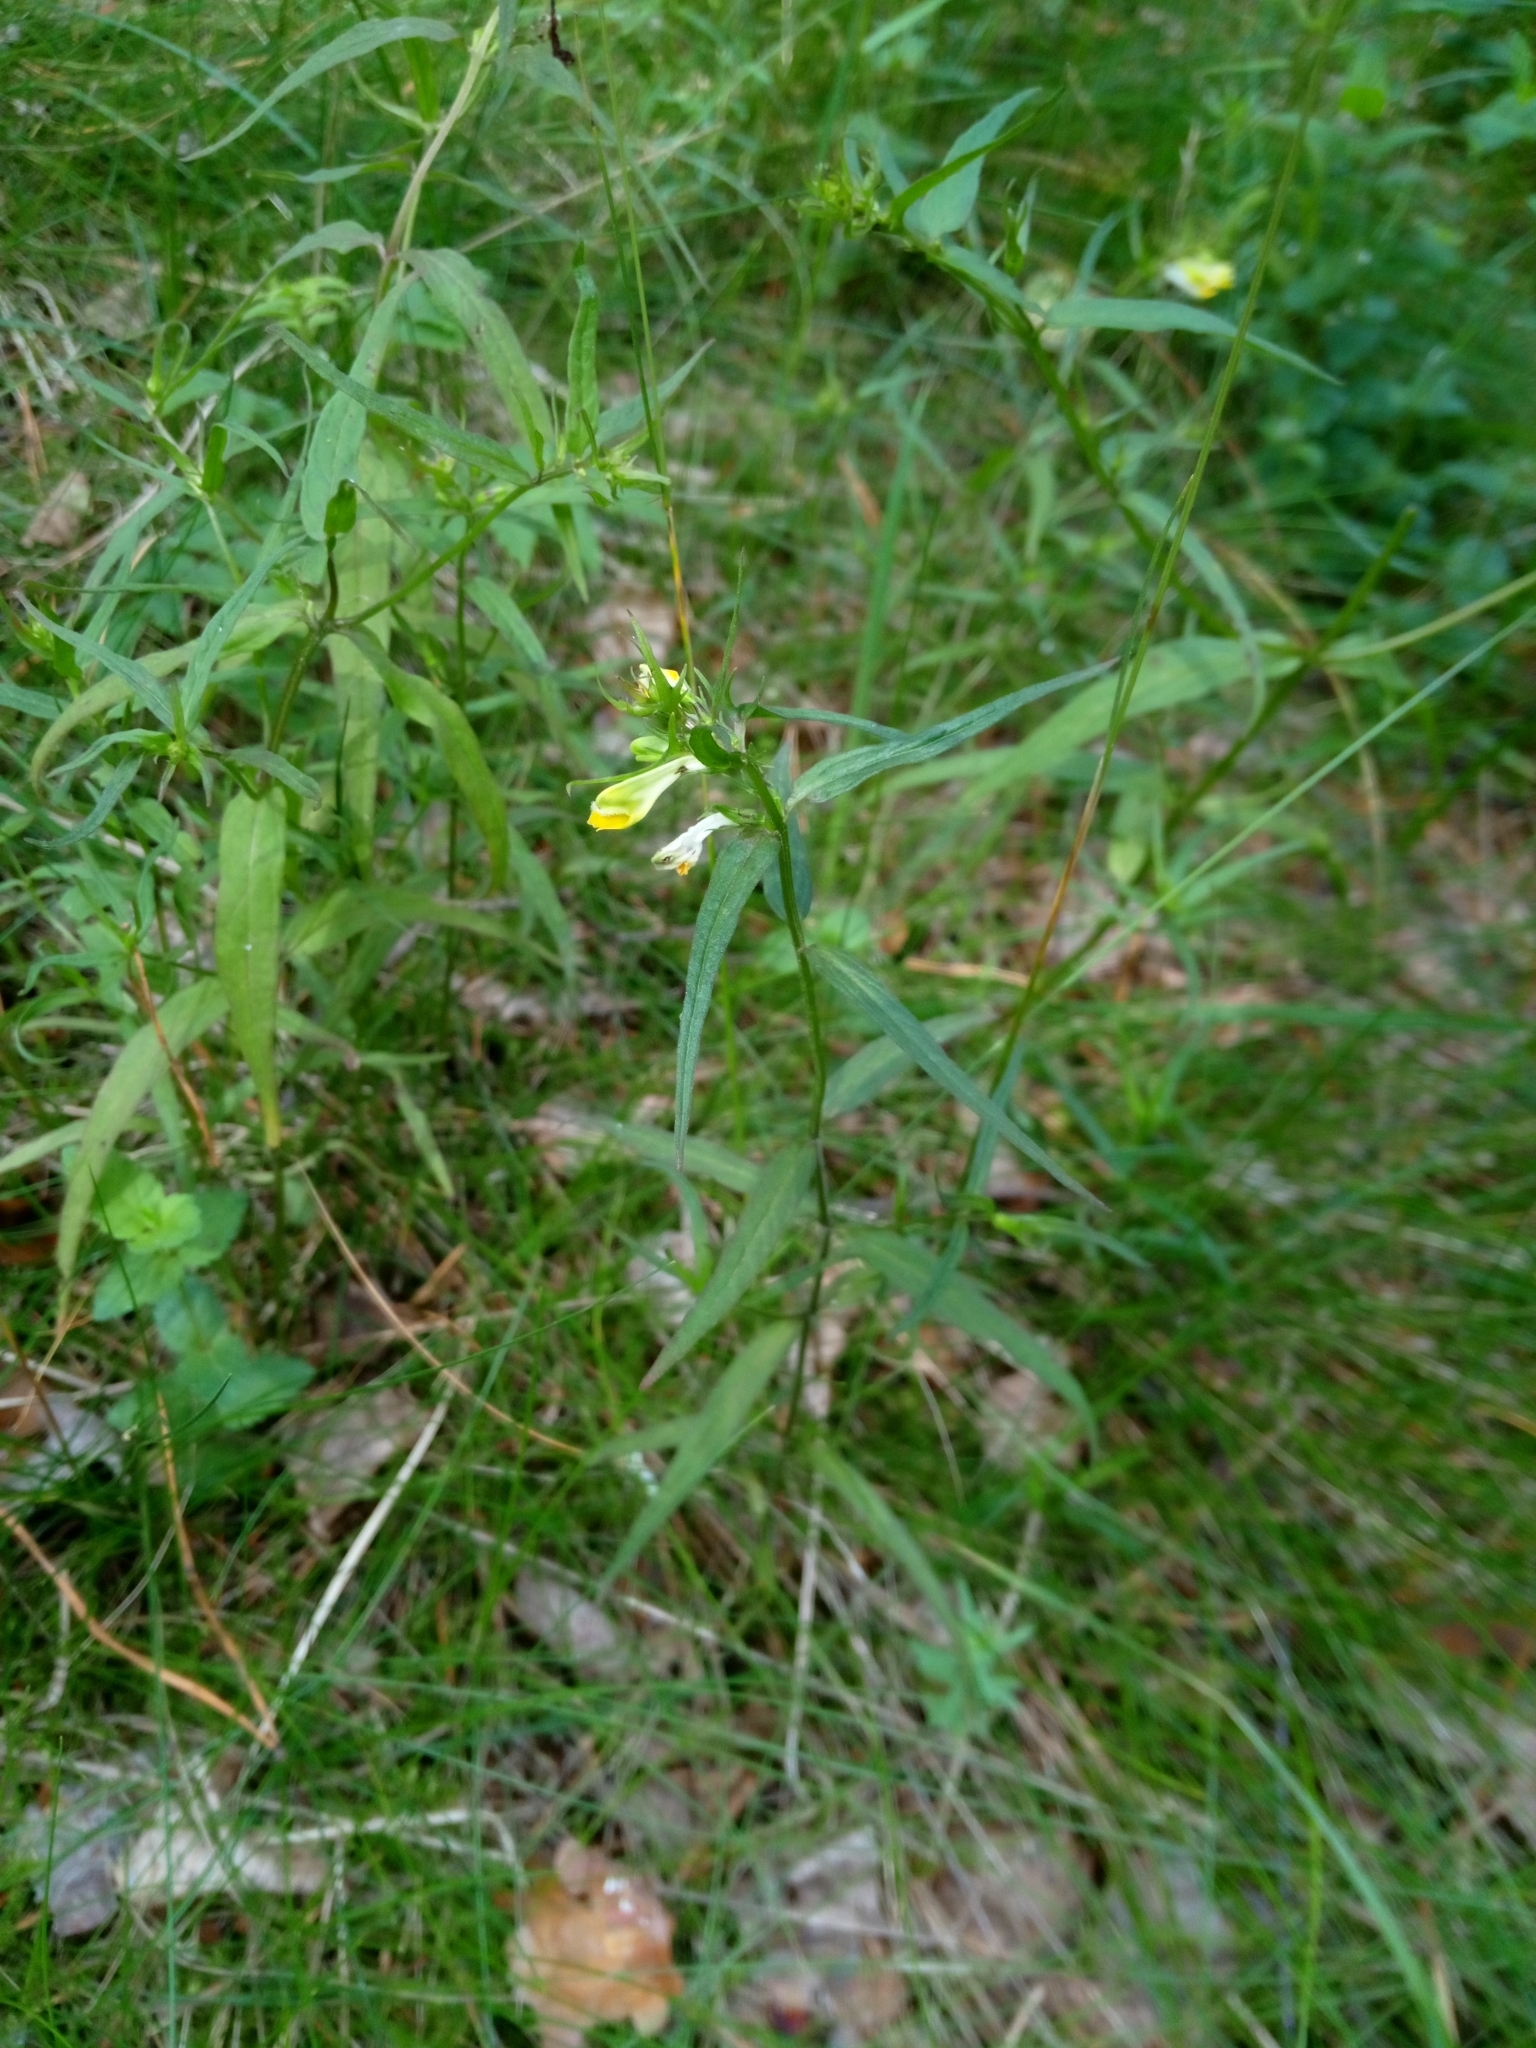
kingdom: Plantae
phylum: Tracheophyta
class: Magnoliopsida
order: Lamiales
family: Orobanchaceae
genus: Melampyrum
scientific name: Melampyrum pratense
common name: Common cow-wheat
